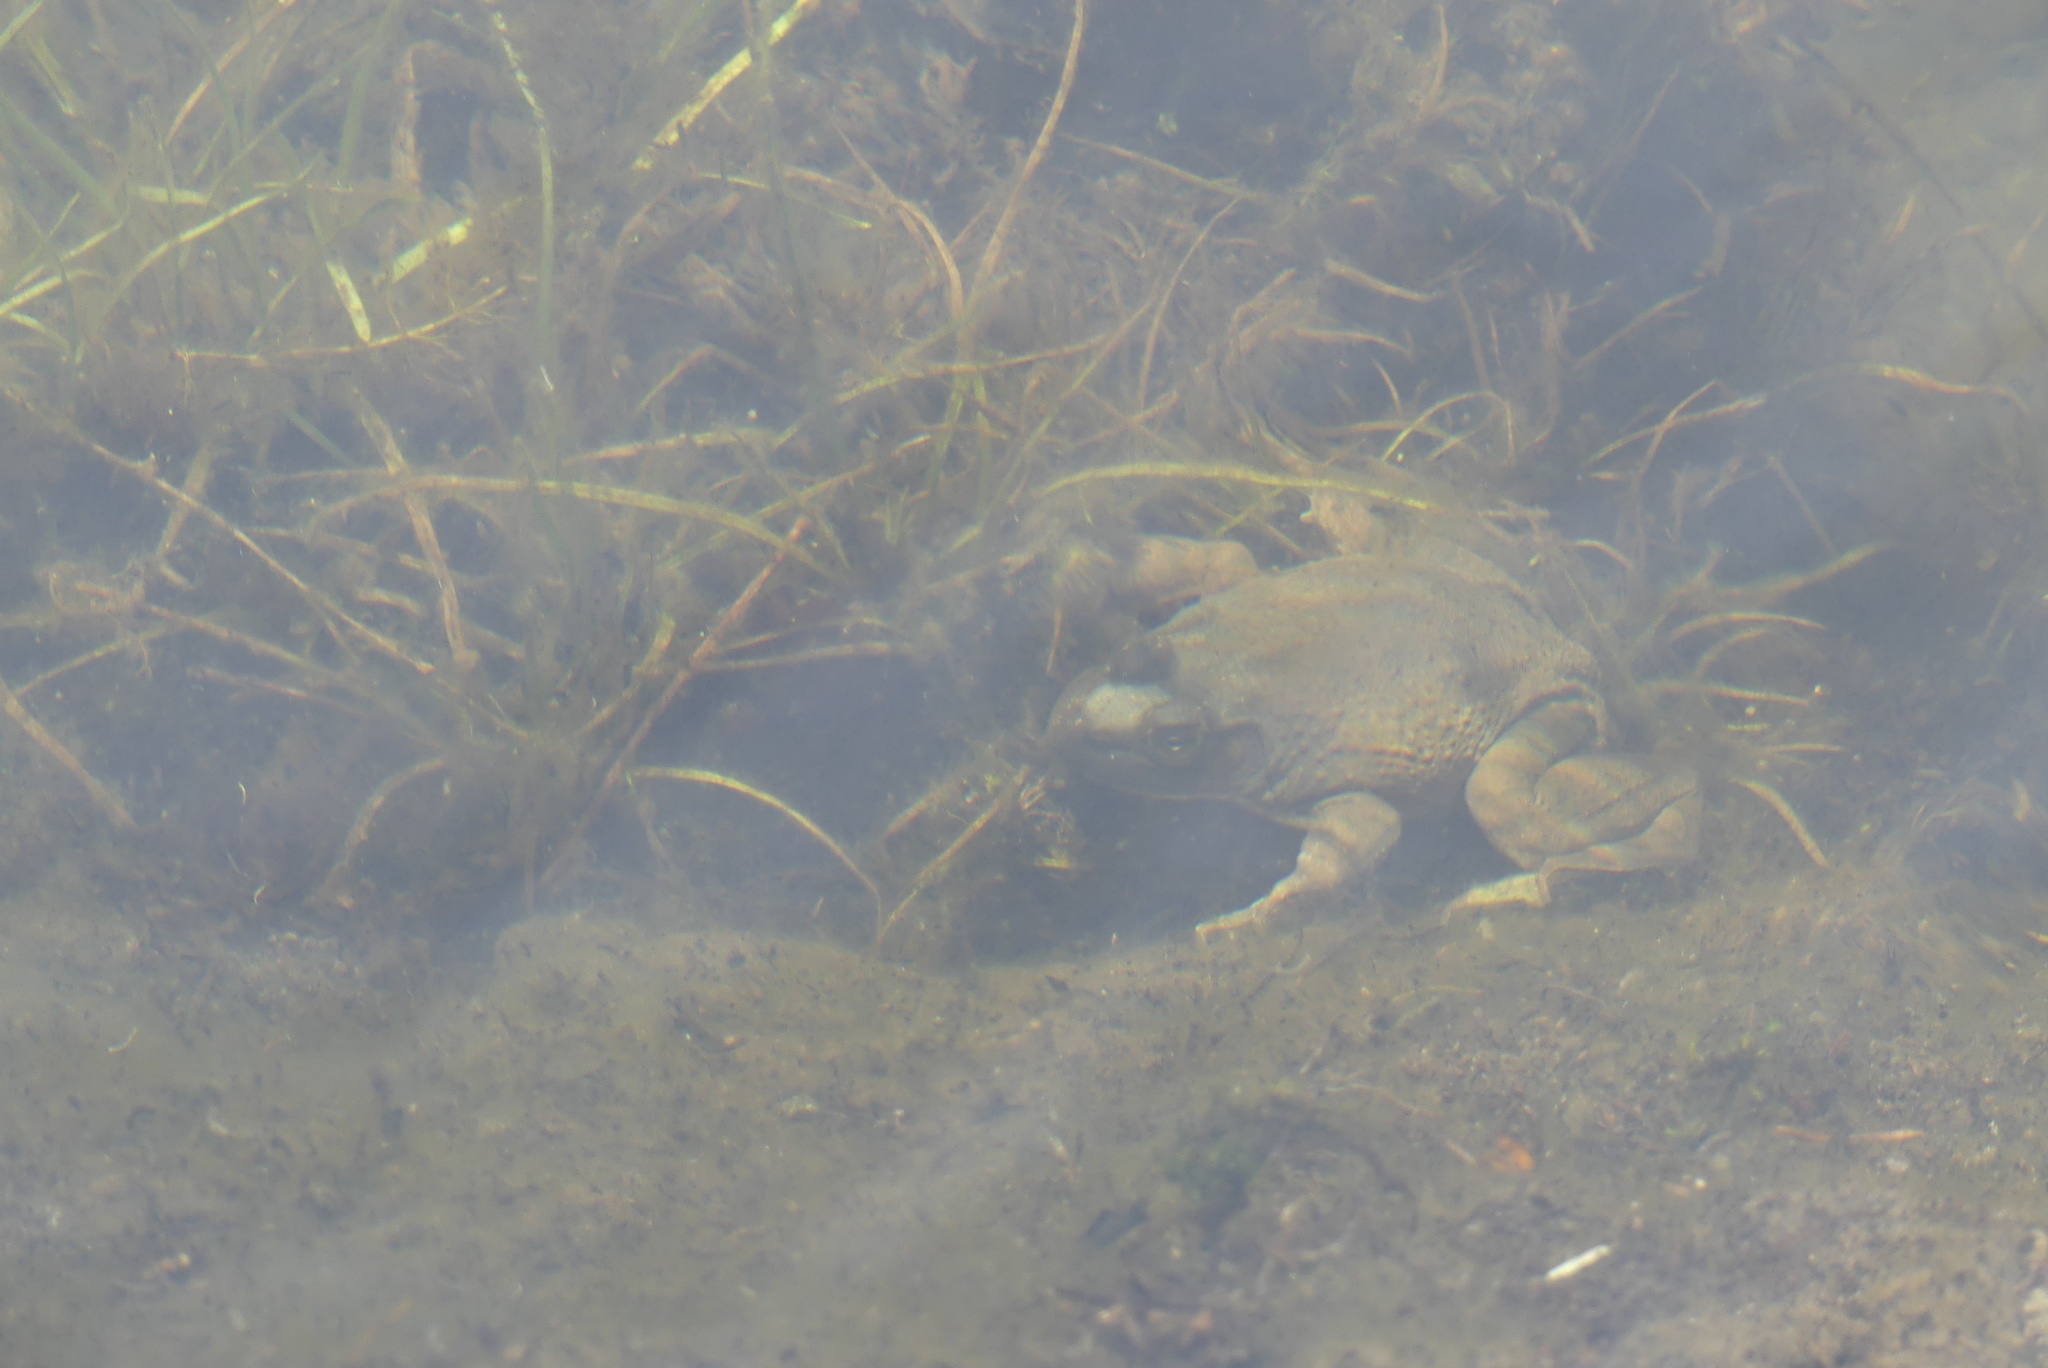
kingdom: Animalia
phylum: Chordata
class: Amphibia
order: Anura
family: Ranidae
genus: Lithobates
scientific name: Lithobates catesbeianus
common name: American bullfrog
